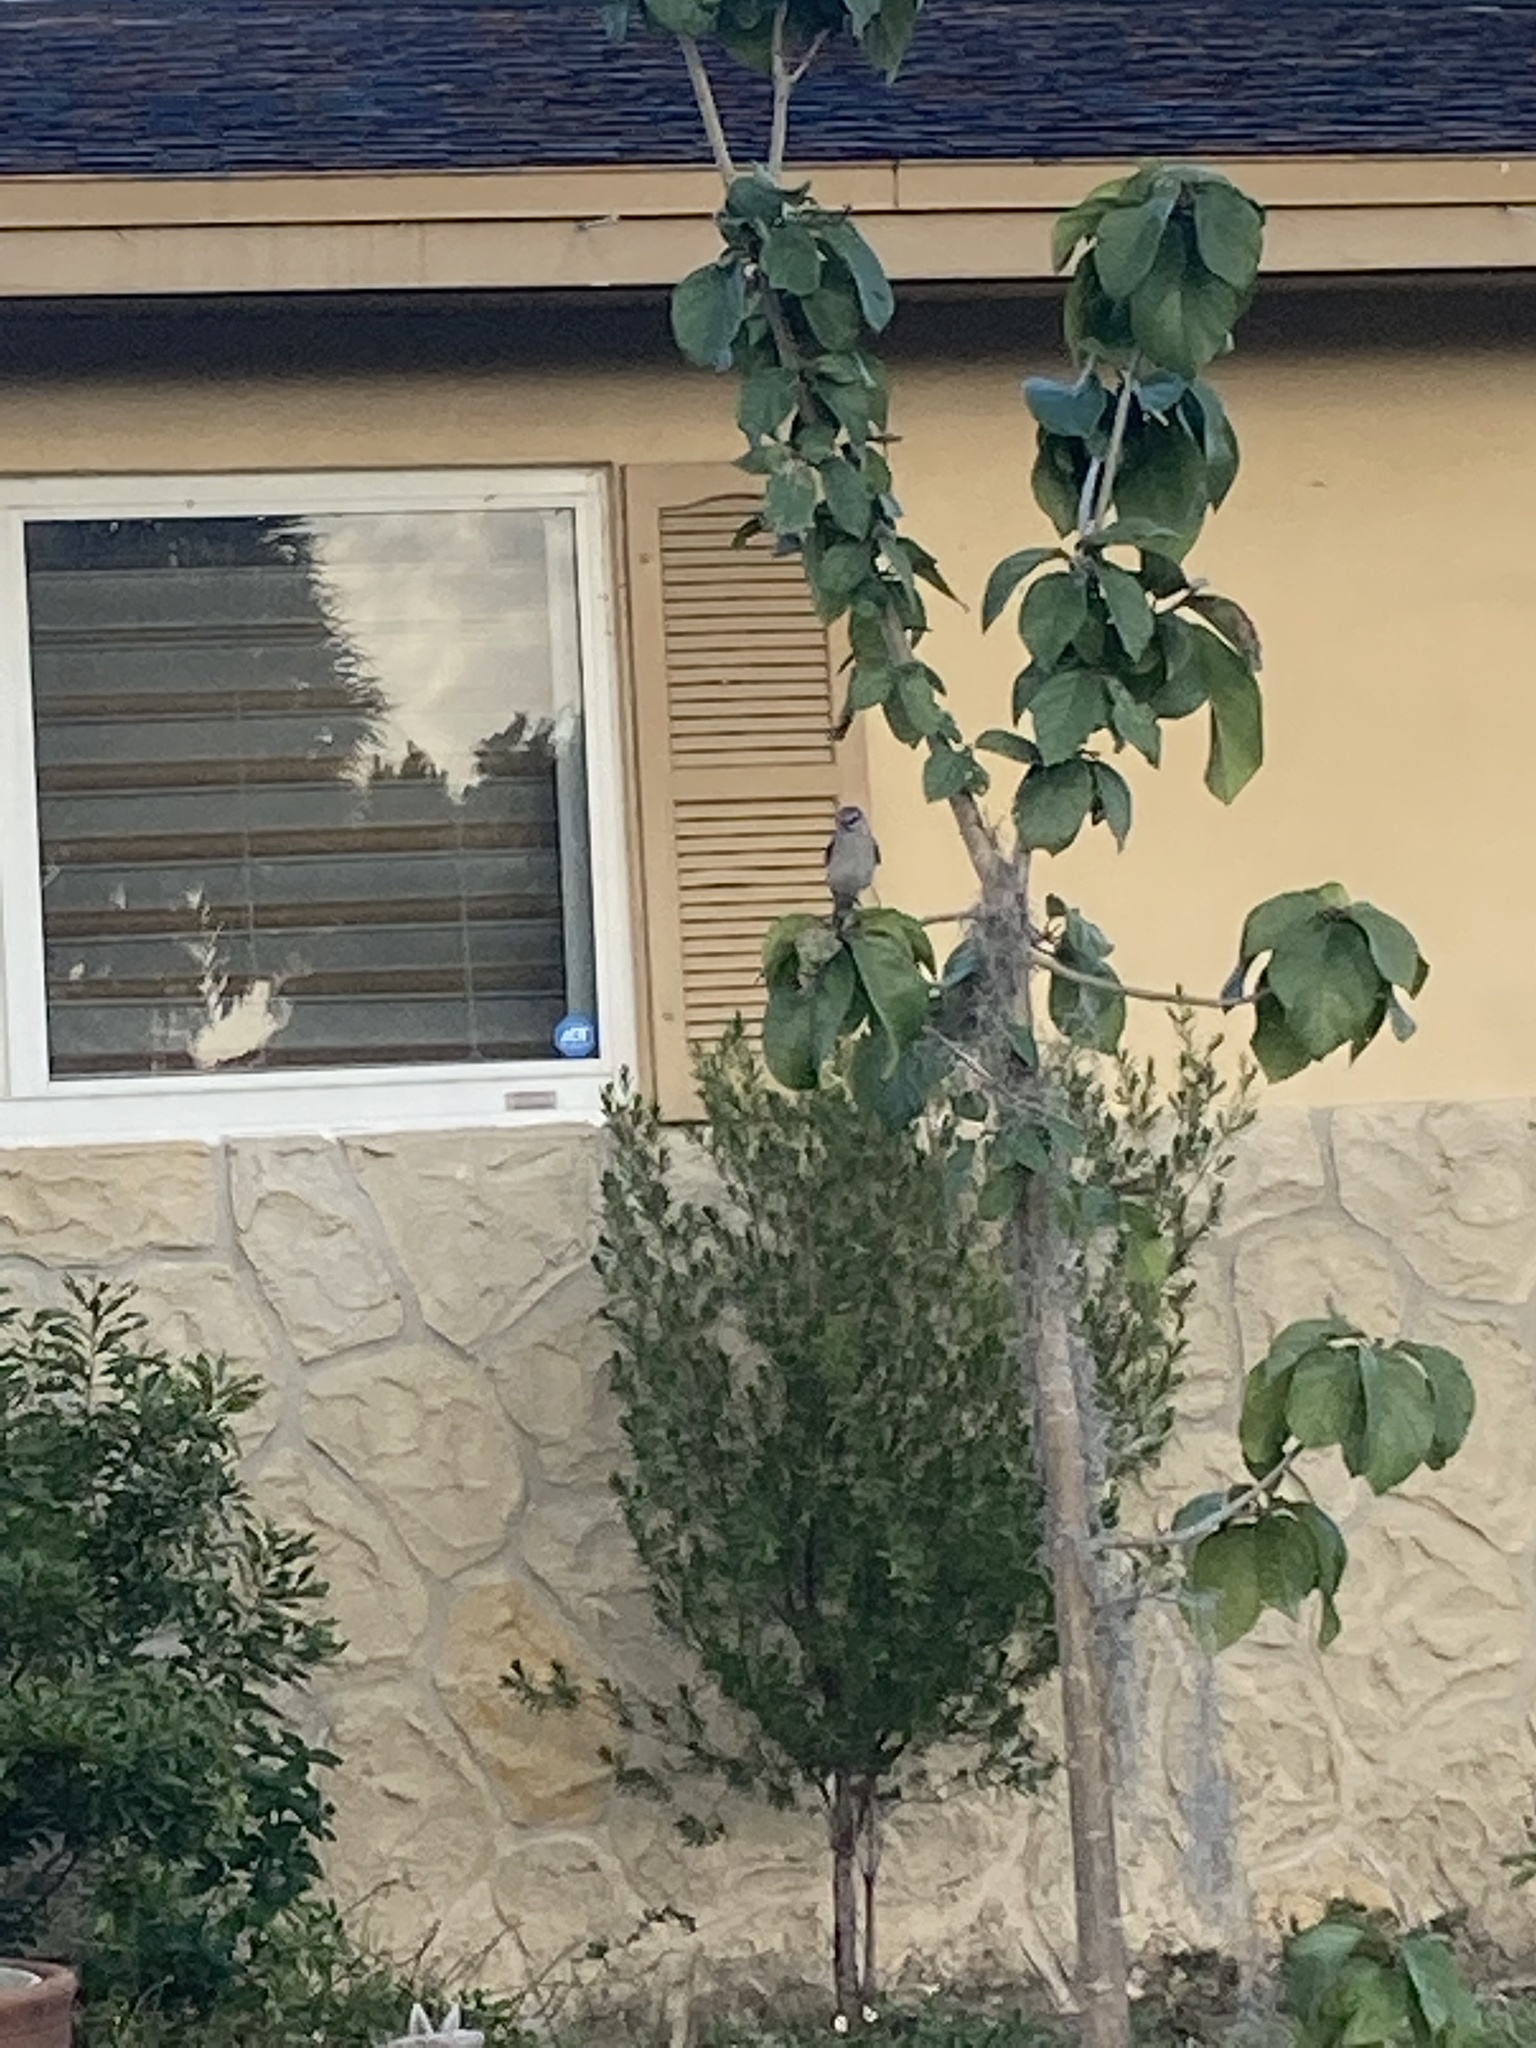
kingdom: Animalia
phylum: Chordata
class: Aves
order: Passeriformes
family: Mimidae
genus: Mimus
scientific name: Mimus polyglottos
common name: Northern mockingbird
